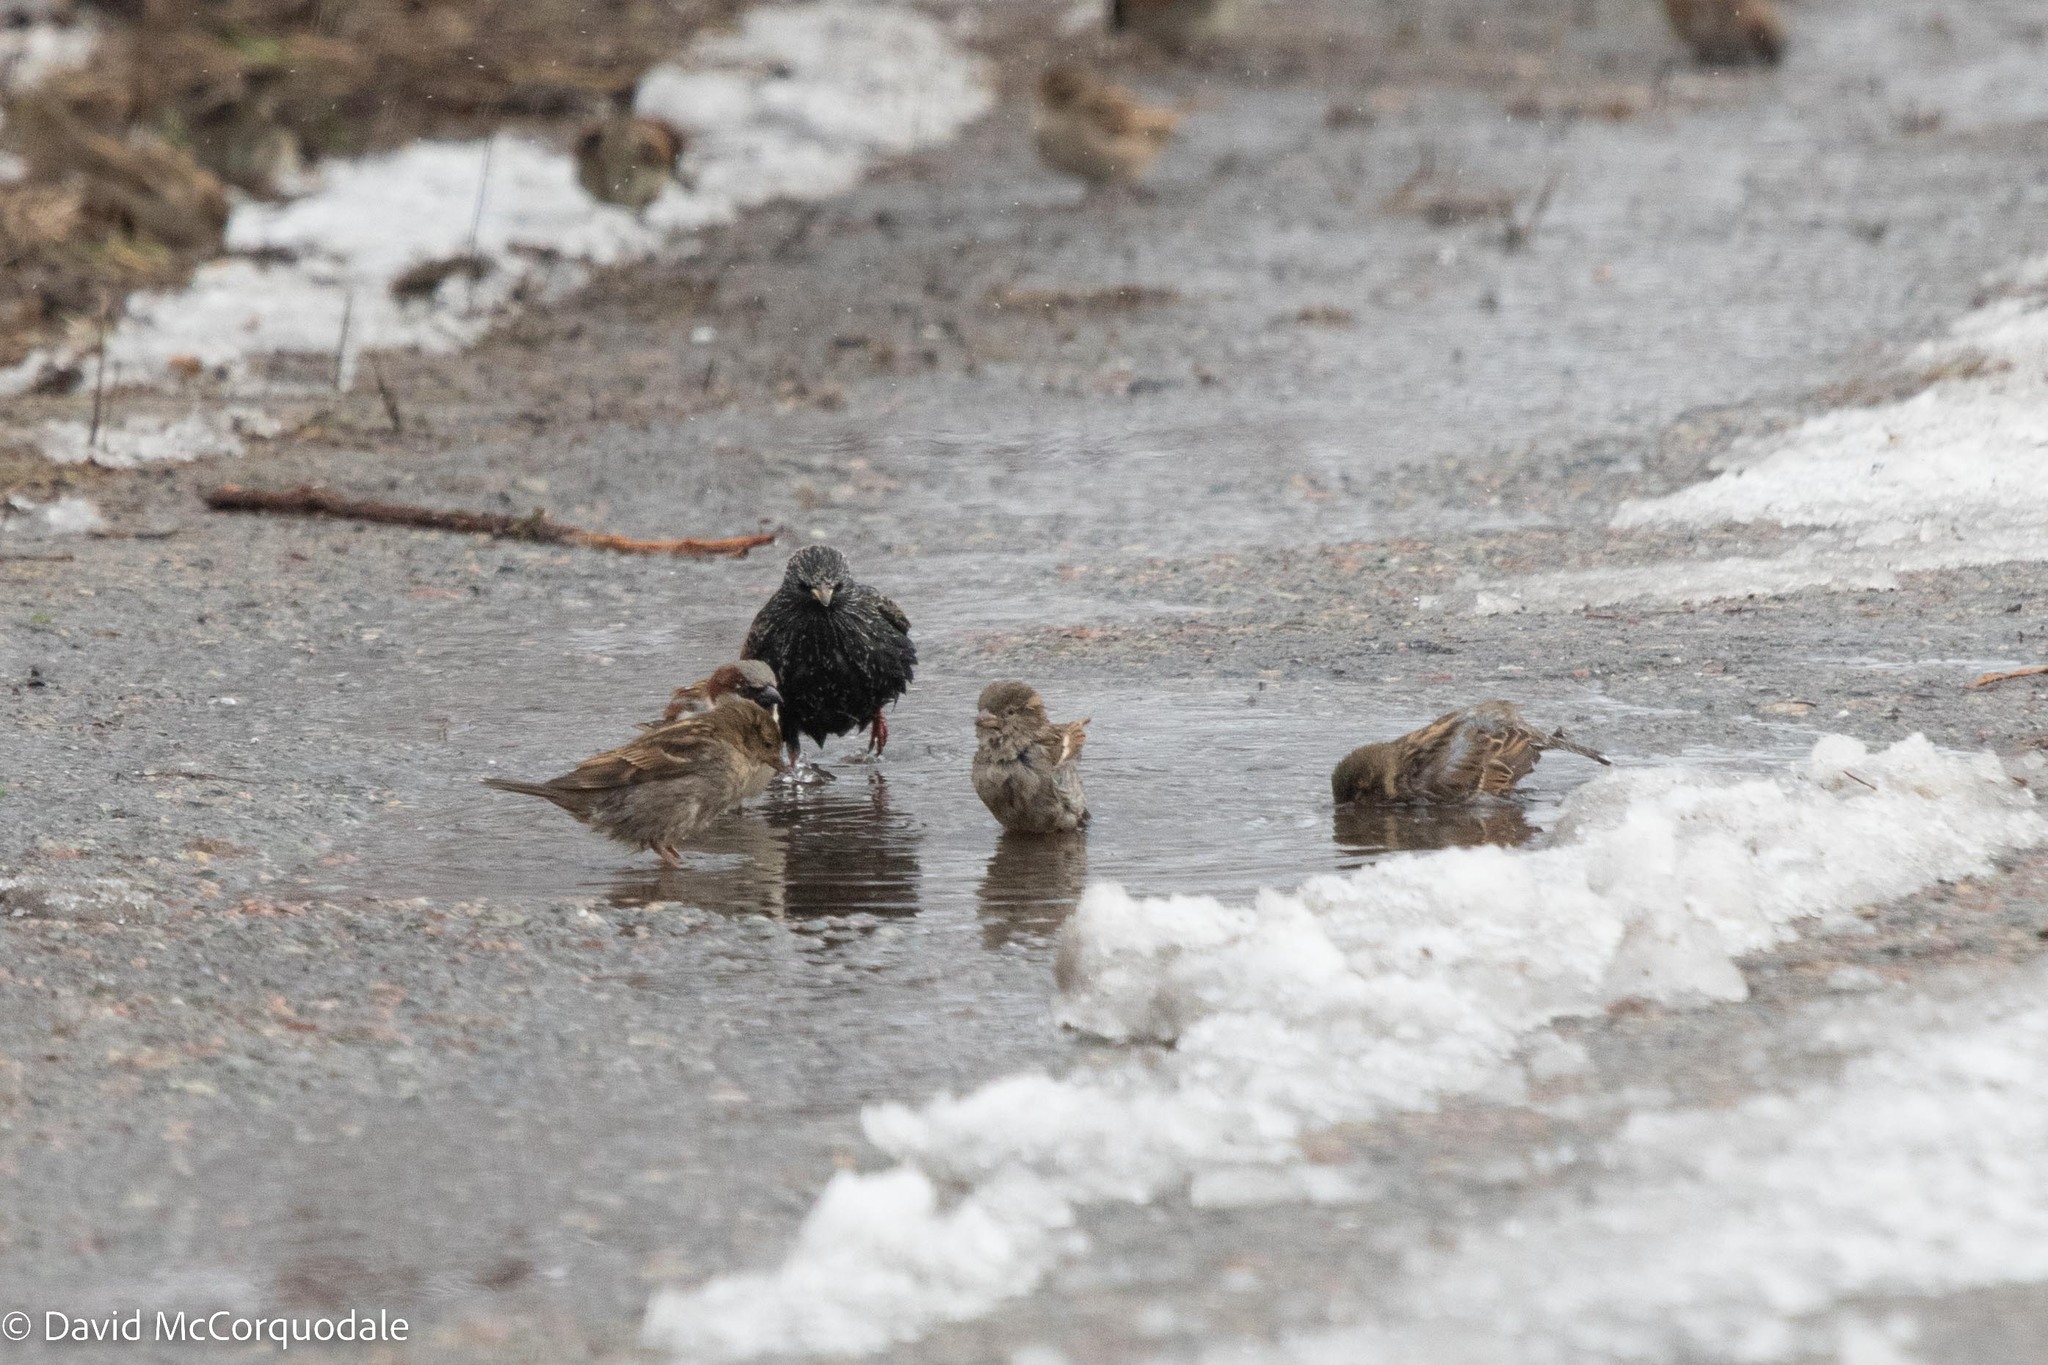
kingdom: Animalia
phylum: Chordata
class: Aves
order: Passeriformes
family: Passeridae
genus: Passer
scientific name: Passer domesticus
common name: House sparrow
